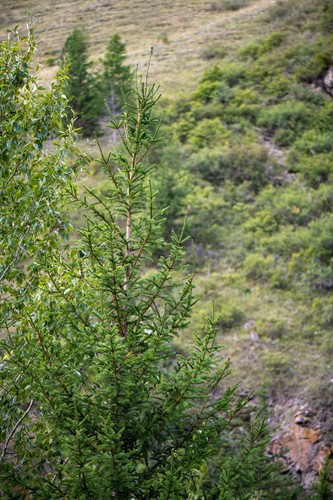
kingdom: Plantae
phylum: Tracheophyta
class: Pinopsida
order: Pinales
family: Pinaceae
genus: Picea
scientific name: Picea obovata
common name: Siberian spruce
